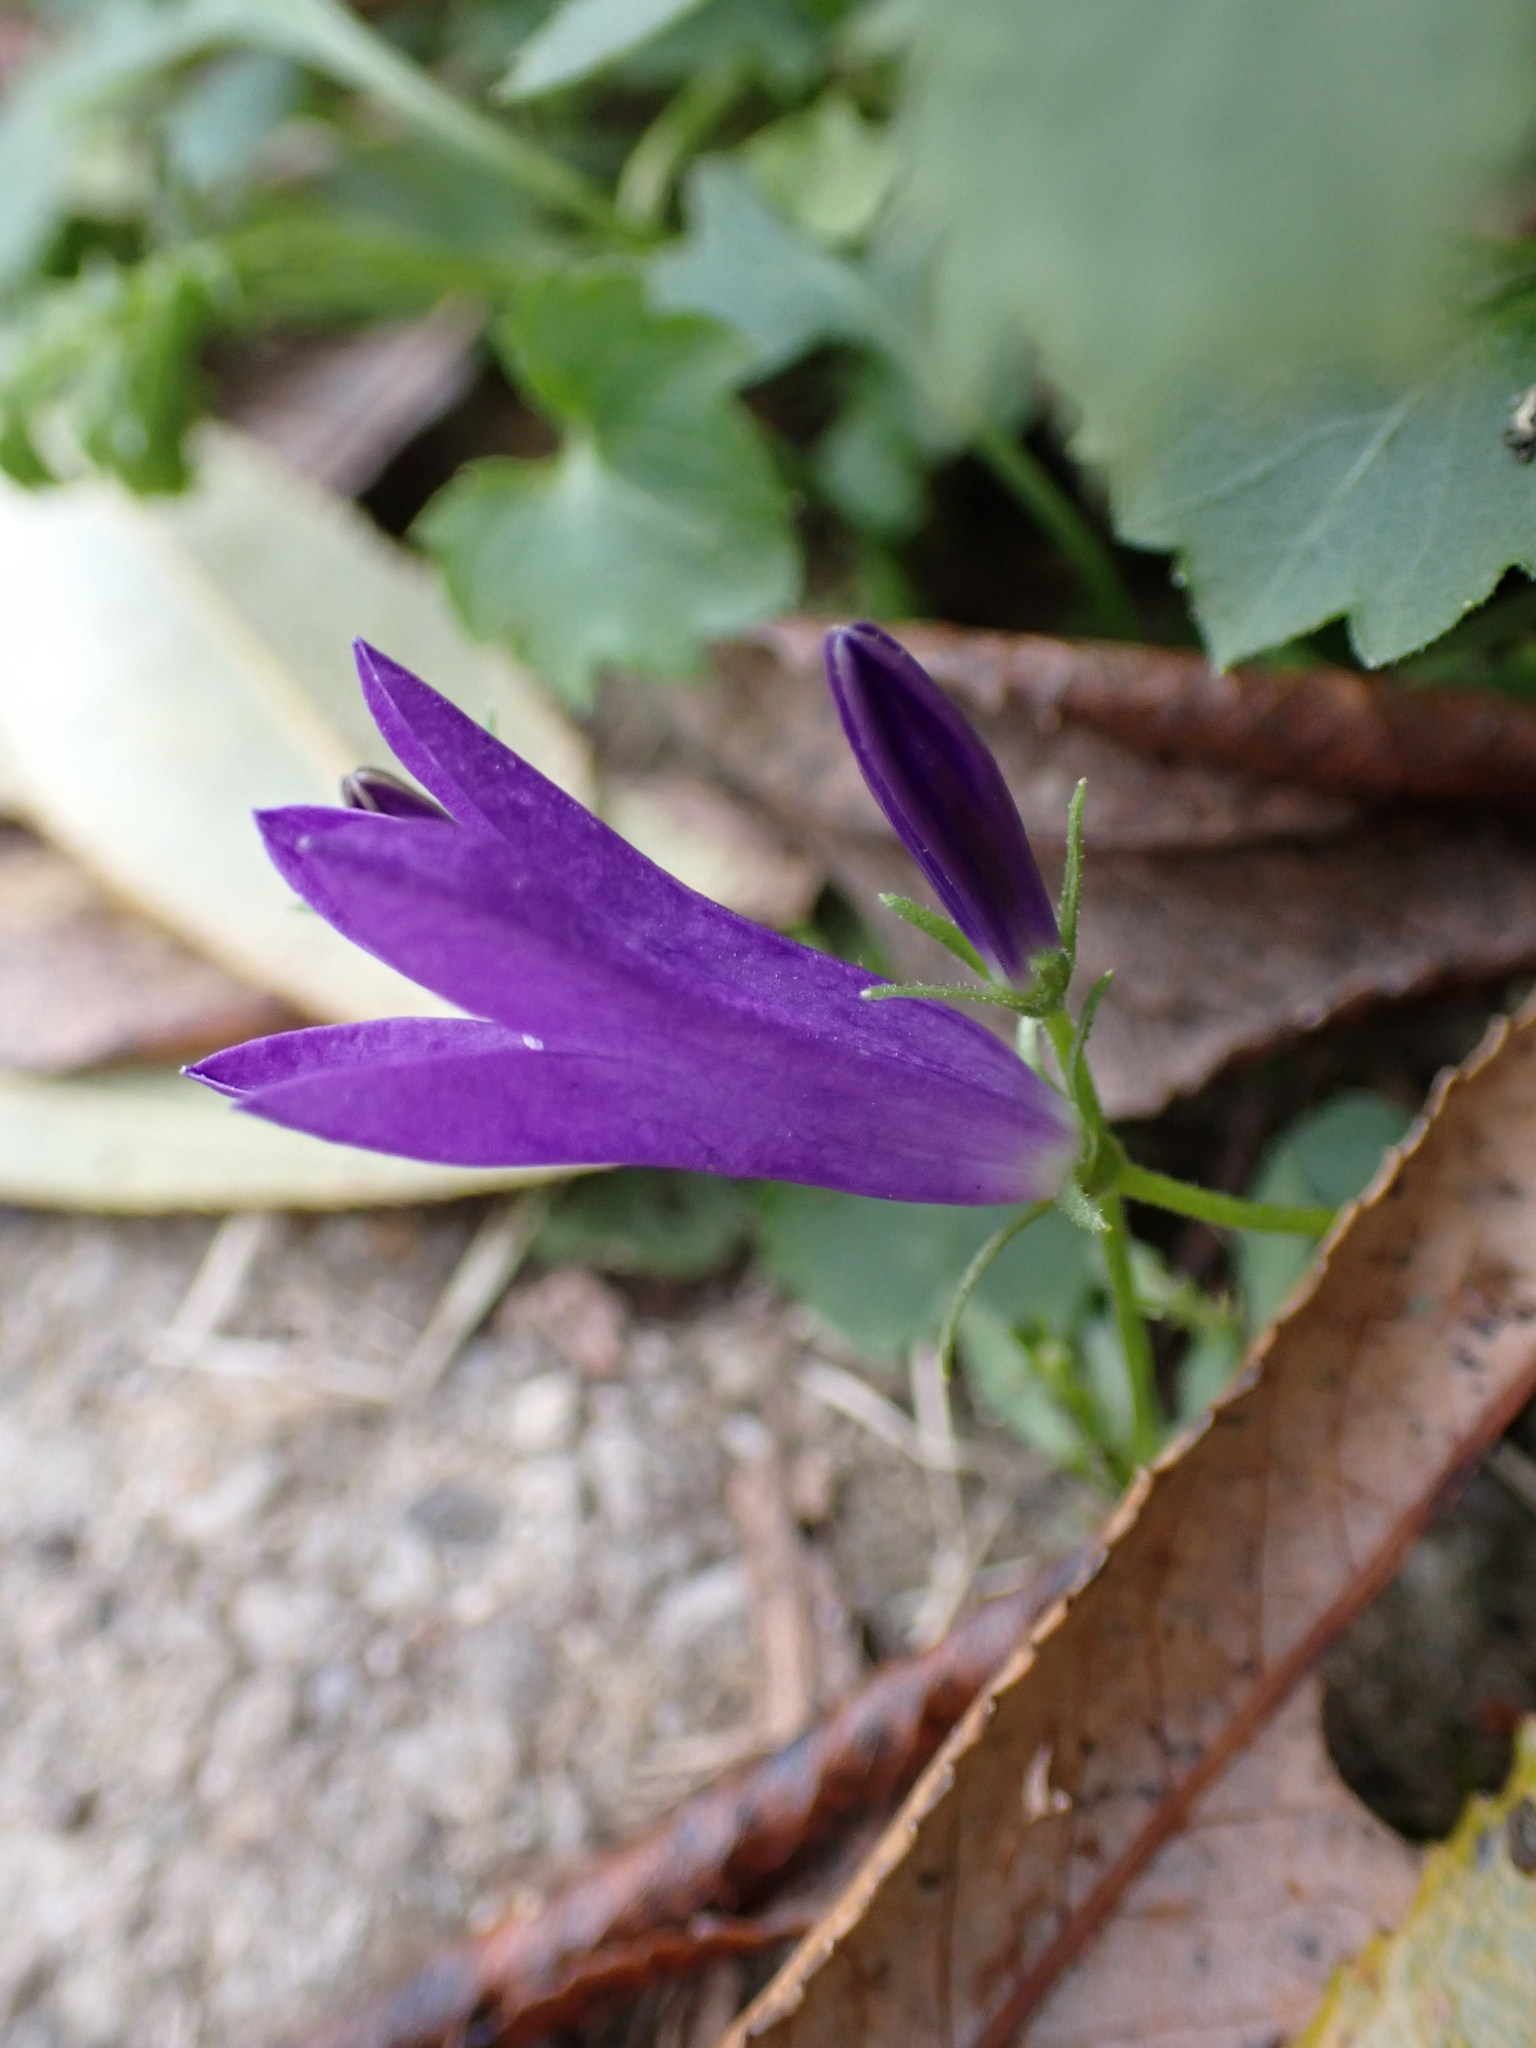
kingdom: Plantae
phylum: Tracheophyta
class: Magnoliopsida
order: Asterales
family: Campanulaceae
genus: Campanula
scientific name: Campanula poscharskyana
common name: Trailing bellflower
